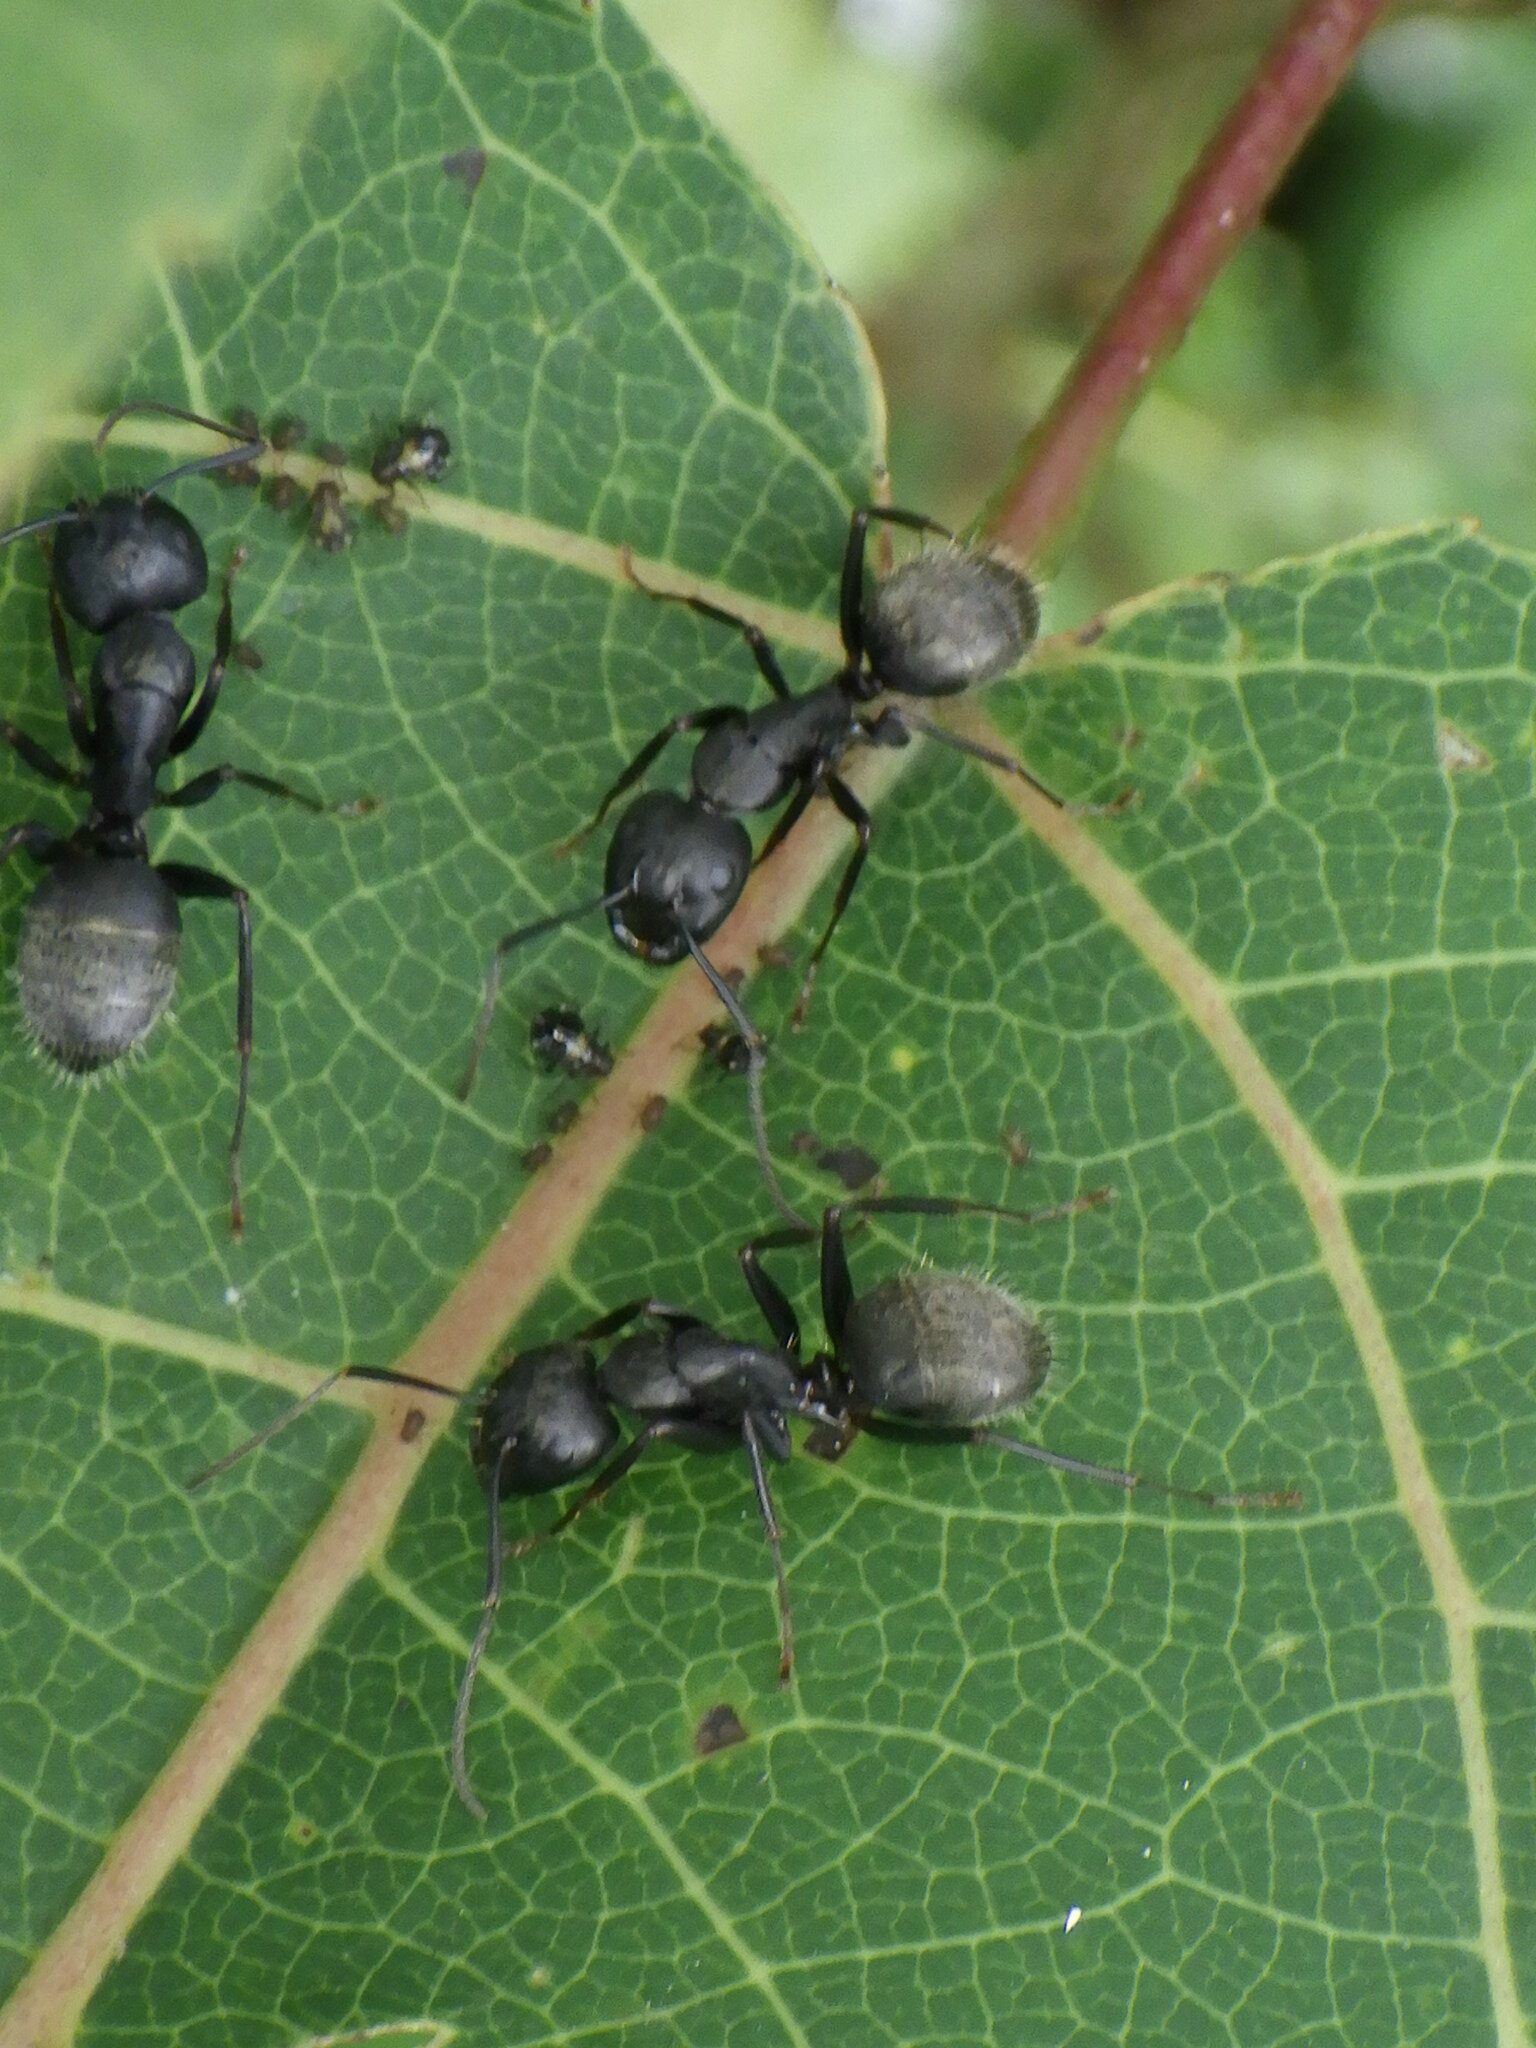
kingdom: Animalia
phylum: Arthropoda
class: Insecta
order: Hymenoptera
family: Formicidae
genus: Camponotus
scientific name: Camponotus pennsylvanicus
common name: Black carpenter ant
